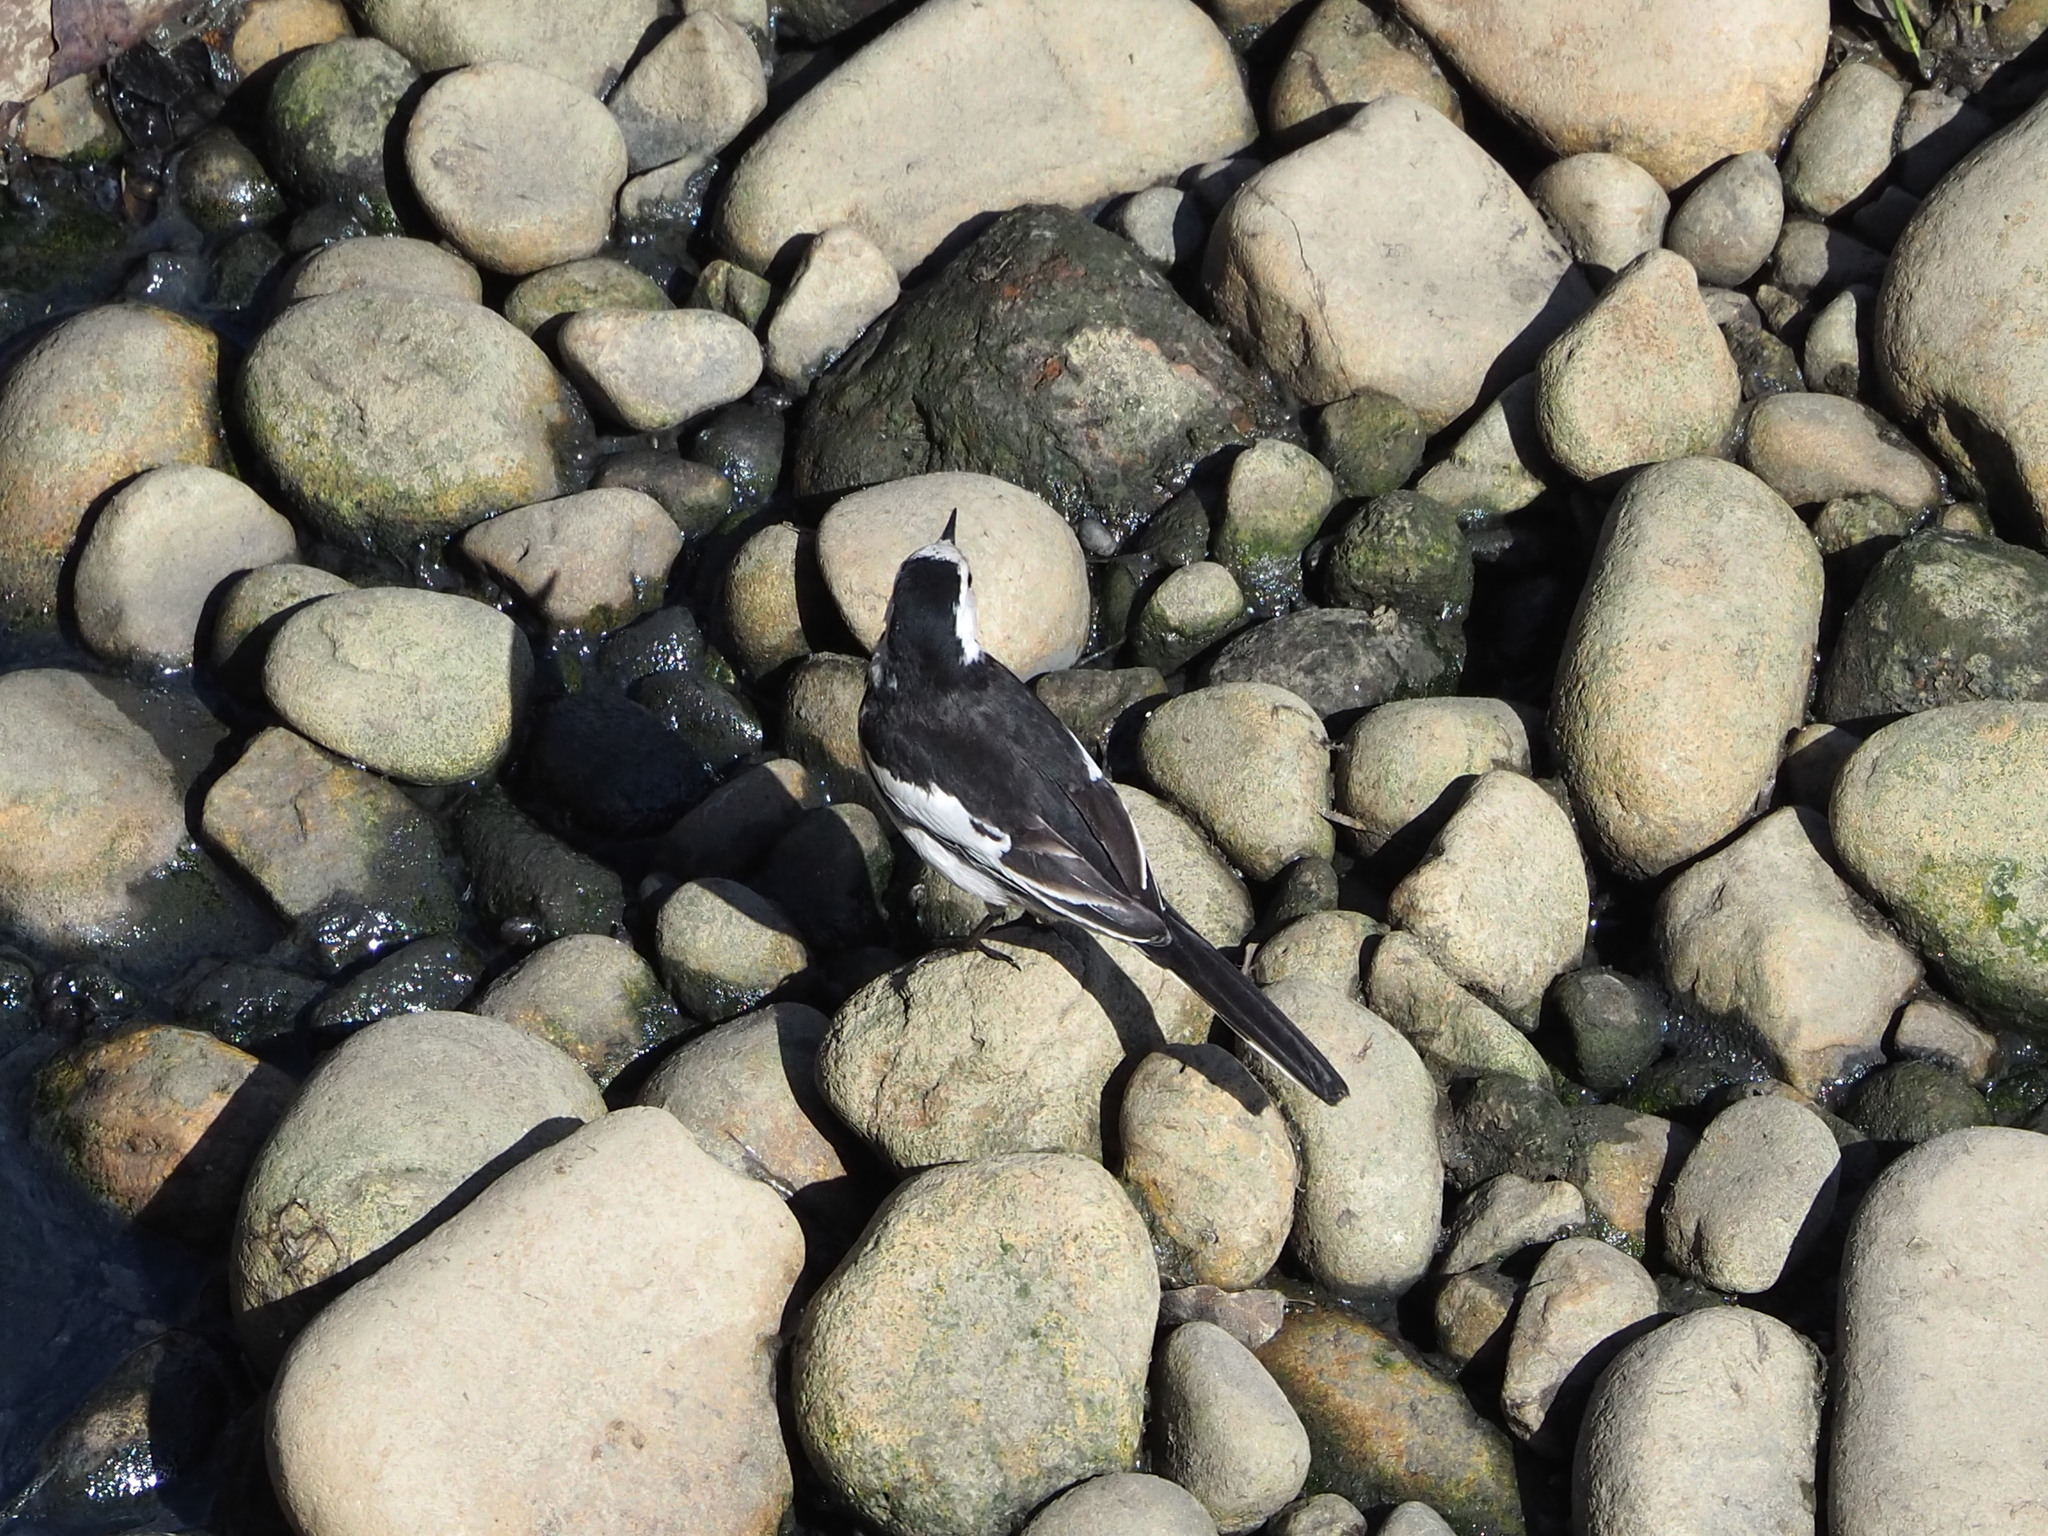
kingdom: Animalia
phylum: Chordata
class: Aves
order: Passeriformes
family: Motacillidae
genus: Motacilla
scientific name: Motacilla alba
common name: White wagtail
